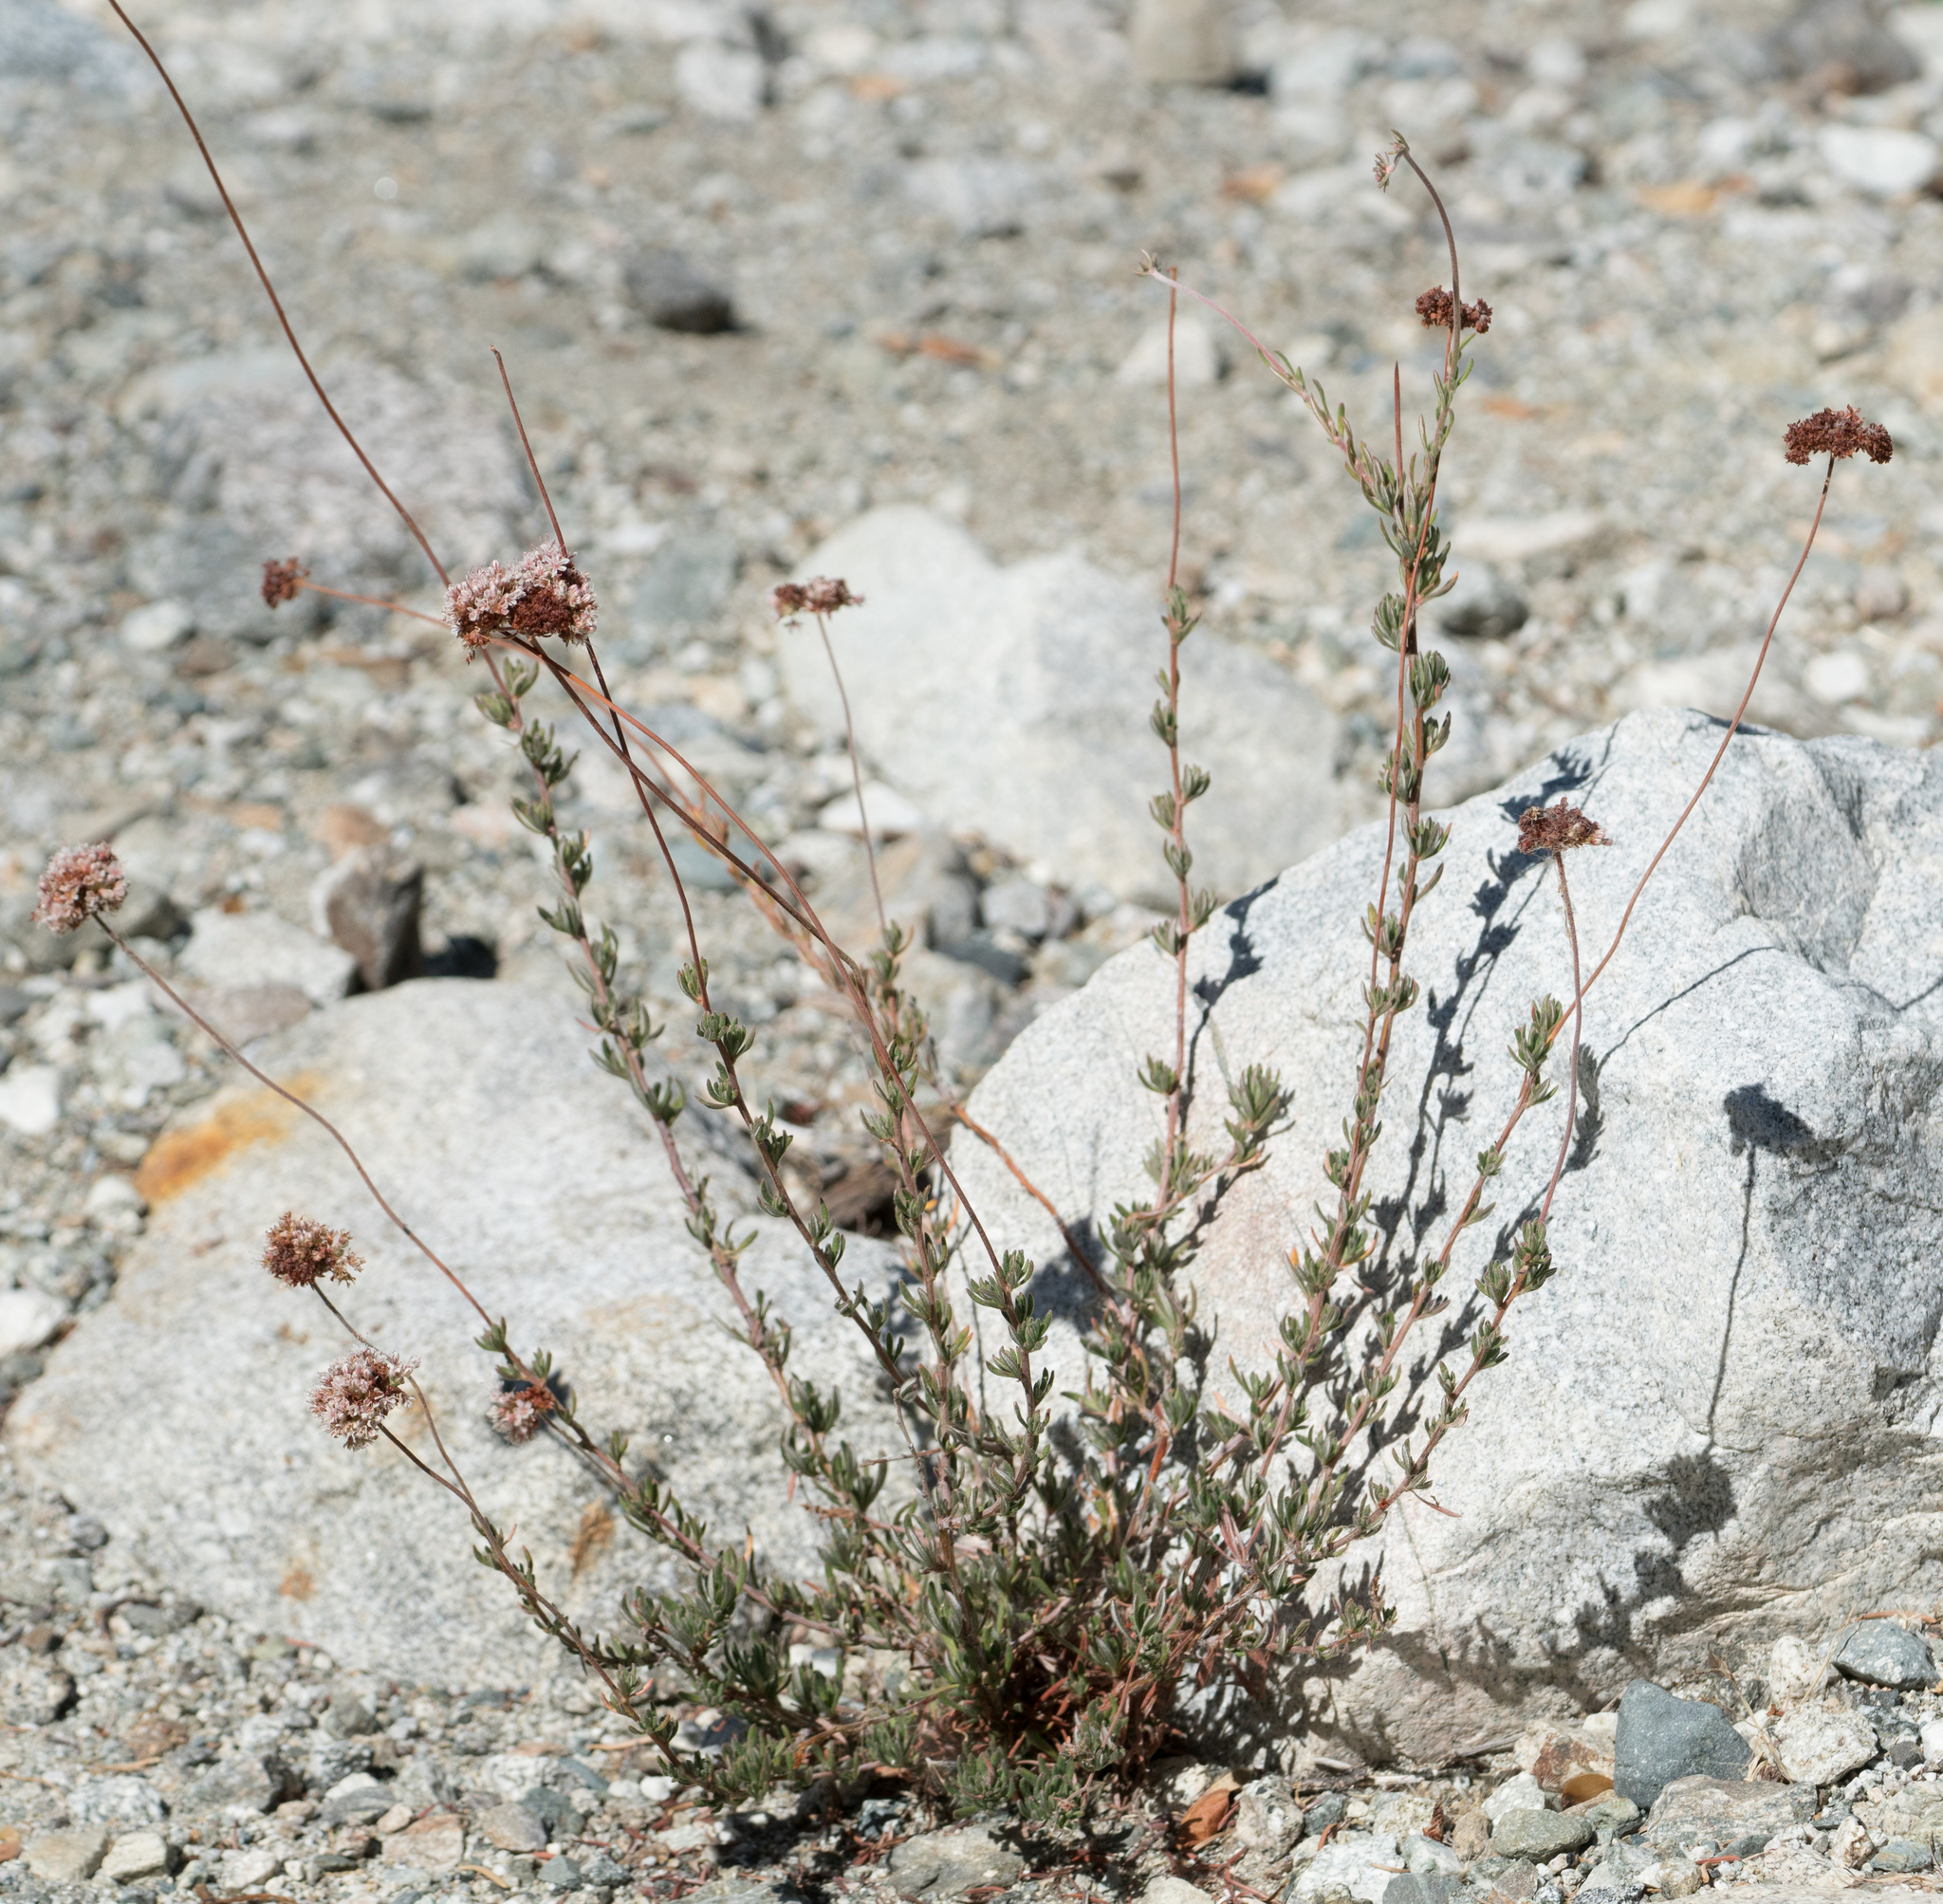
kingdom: Plantae
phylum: Tracheophyta
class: Magnoliopsida
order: Caryophyllales
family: Polygonaceae
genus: Eriogonum
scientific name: Eriogonum fasciculatum
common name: California wild buckwheat
